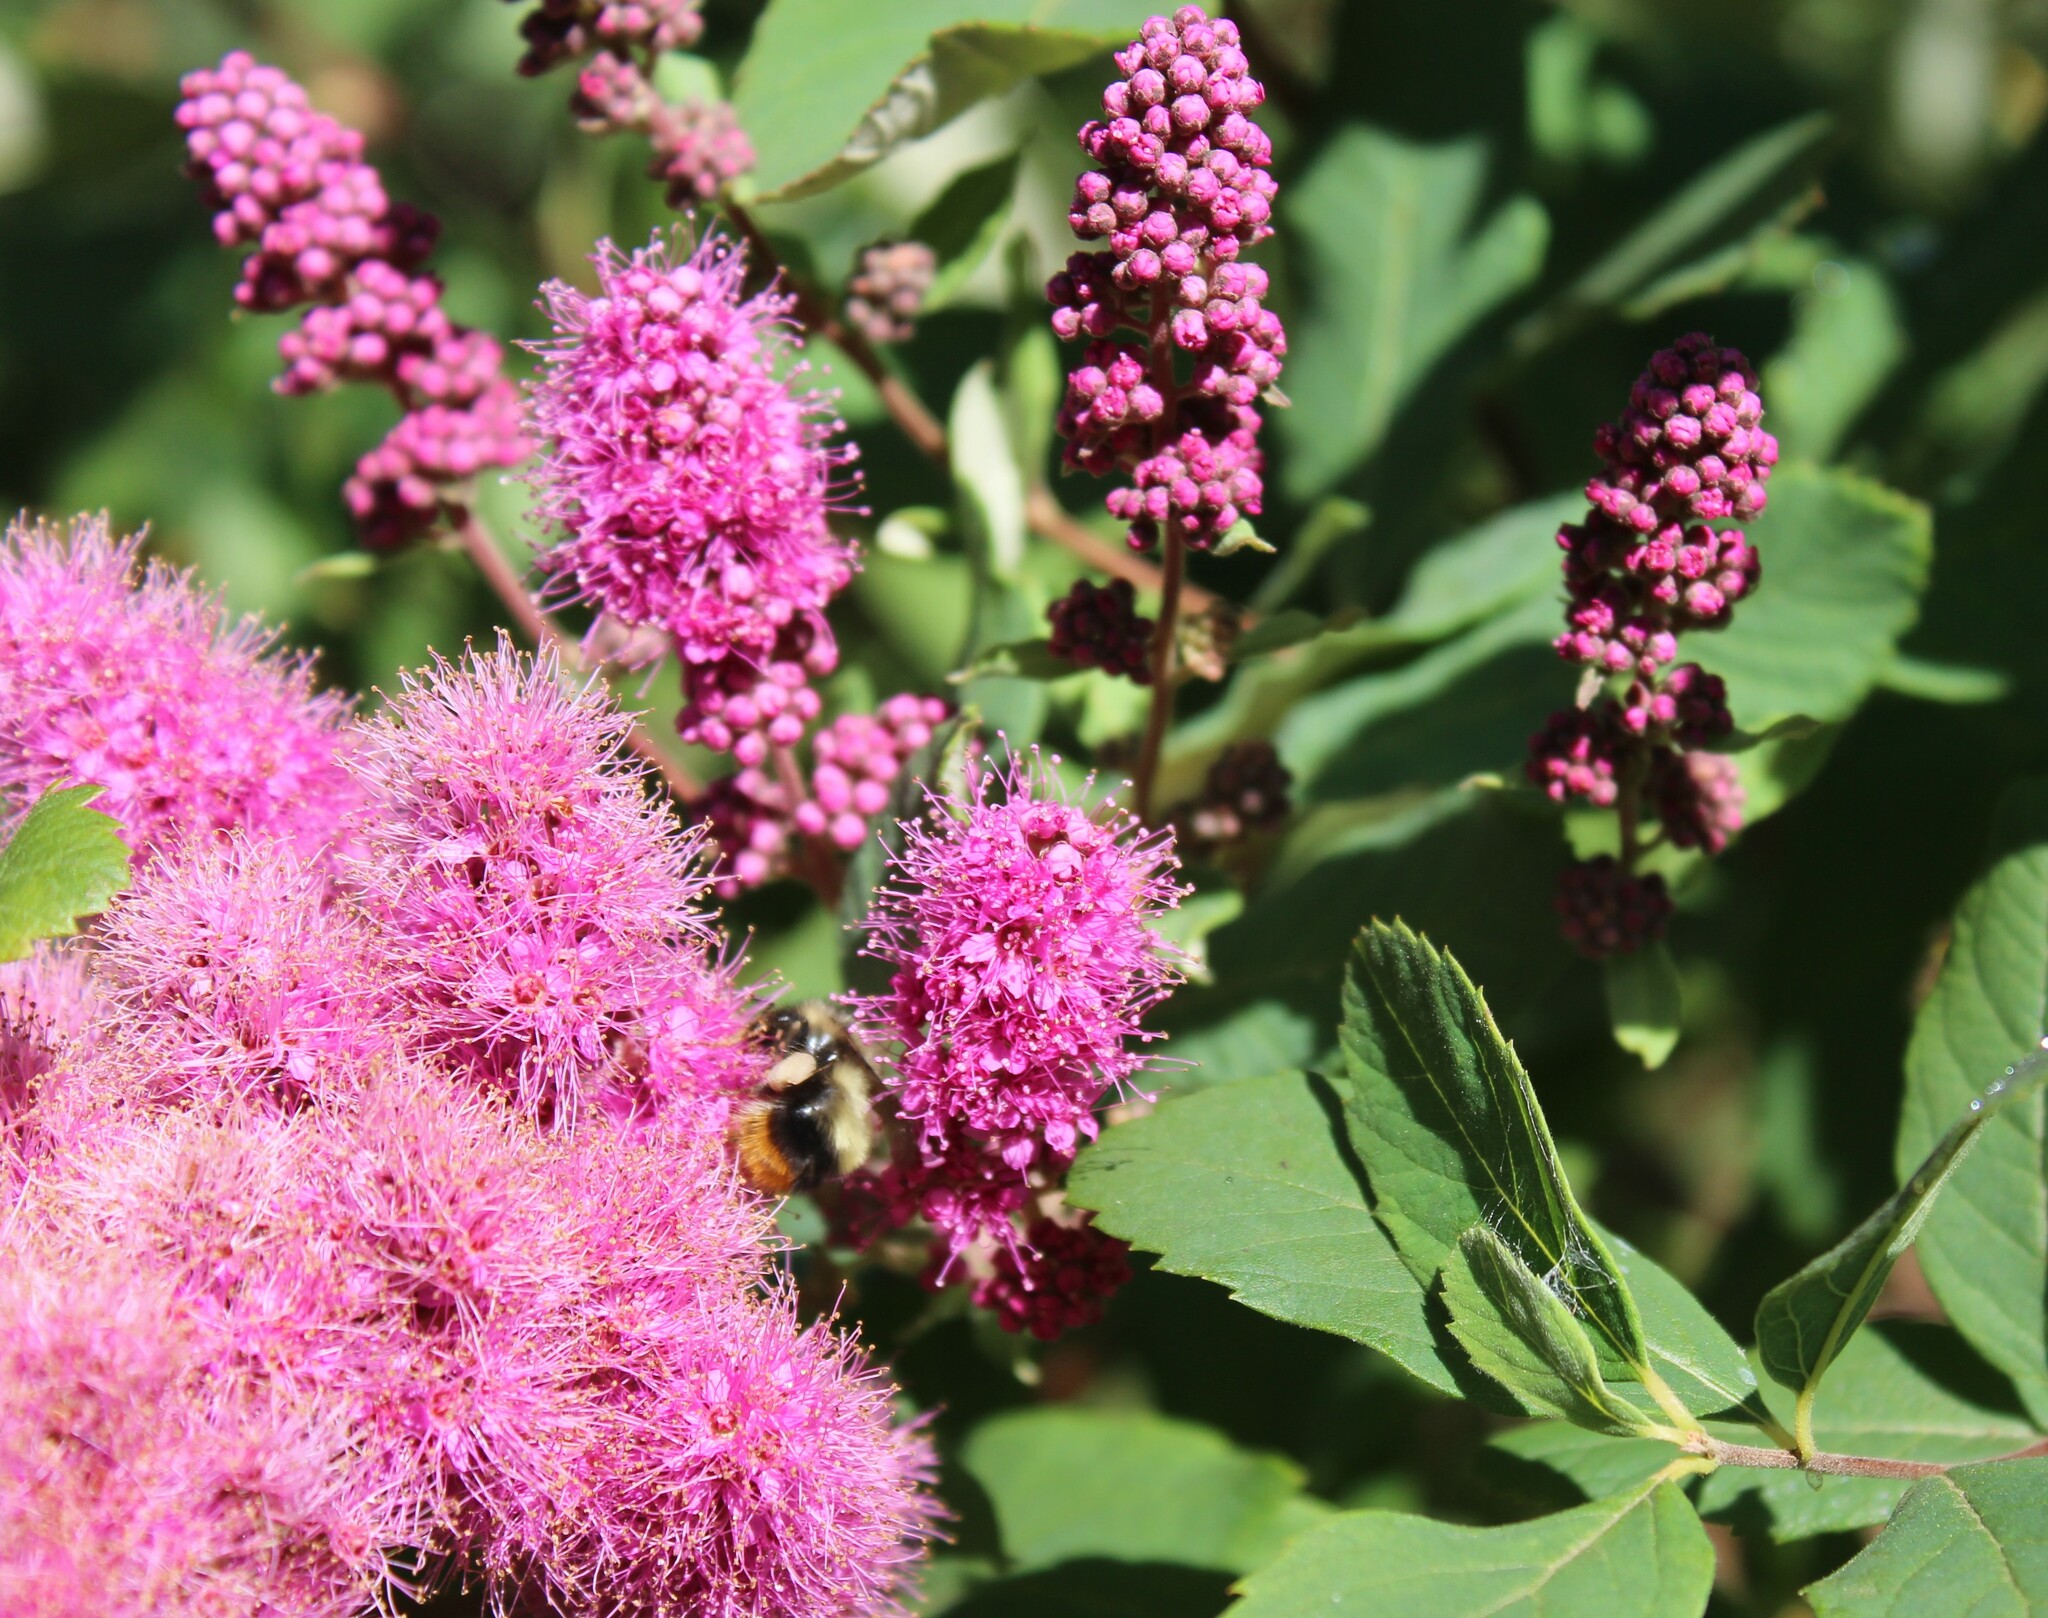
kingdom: Plantae
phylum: Tracheophyta
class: Magnoliopsida
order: Rosales
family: Rosaceae
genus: Spiraea
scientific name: Spiraea douglasii
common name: Steeplebush
